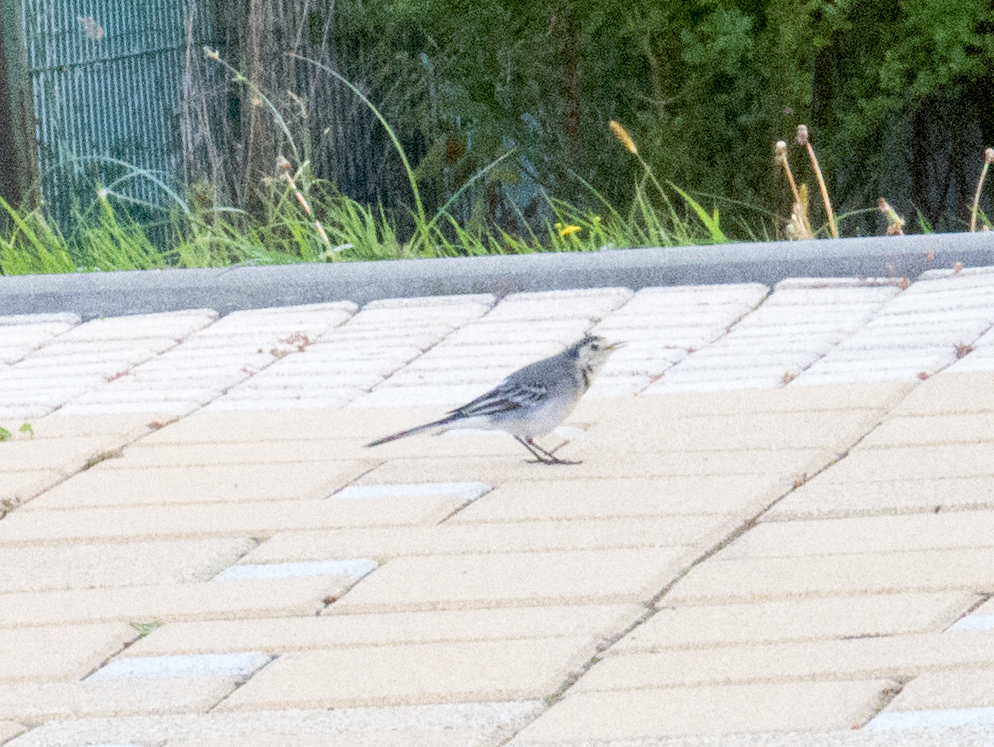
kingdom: Animalia
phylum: Chordata
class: Aves
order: Passeriformes
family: Motacillidae
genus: Motacilla
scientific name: Motacilla alba
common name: White wagtail
